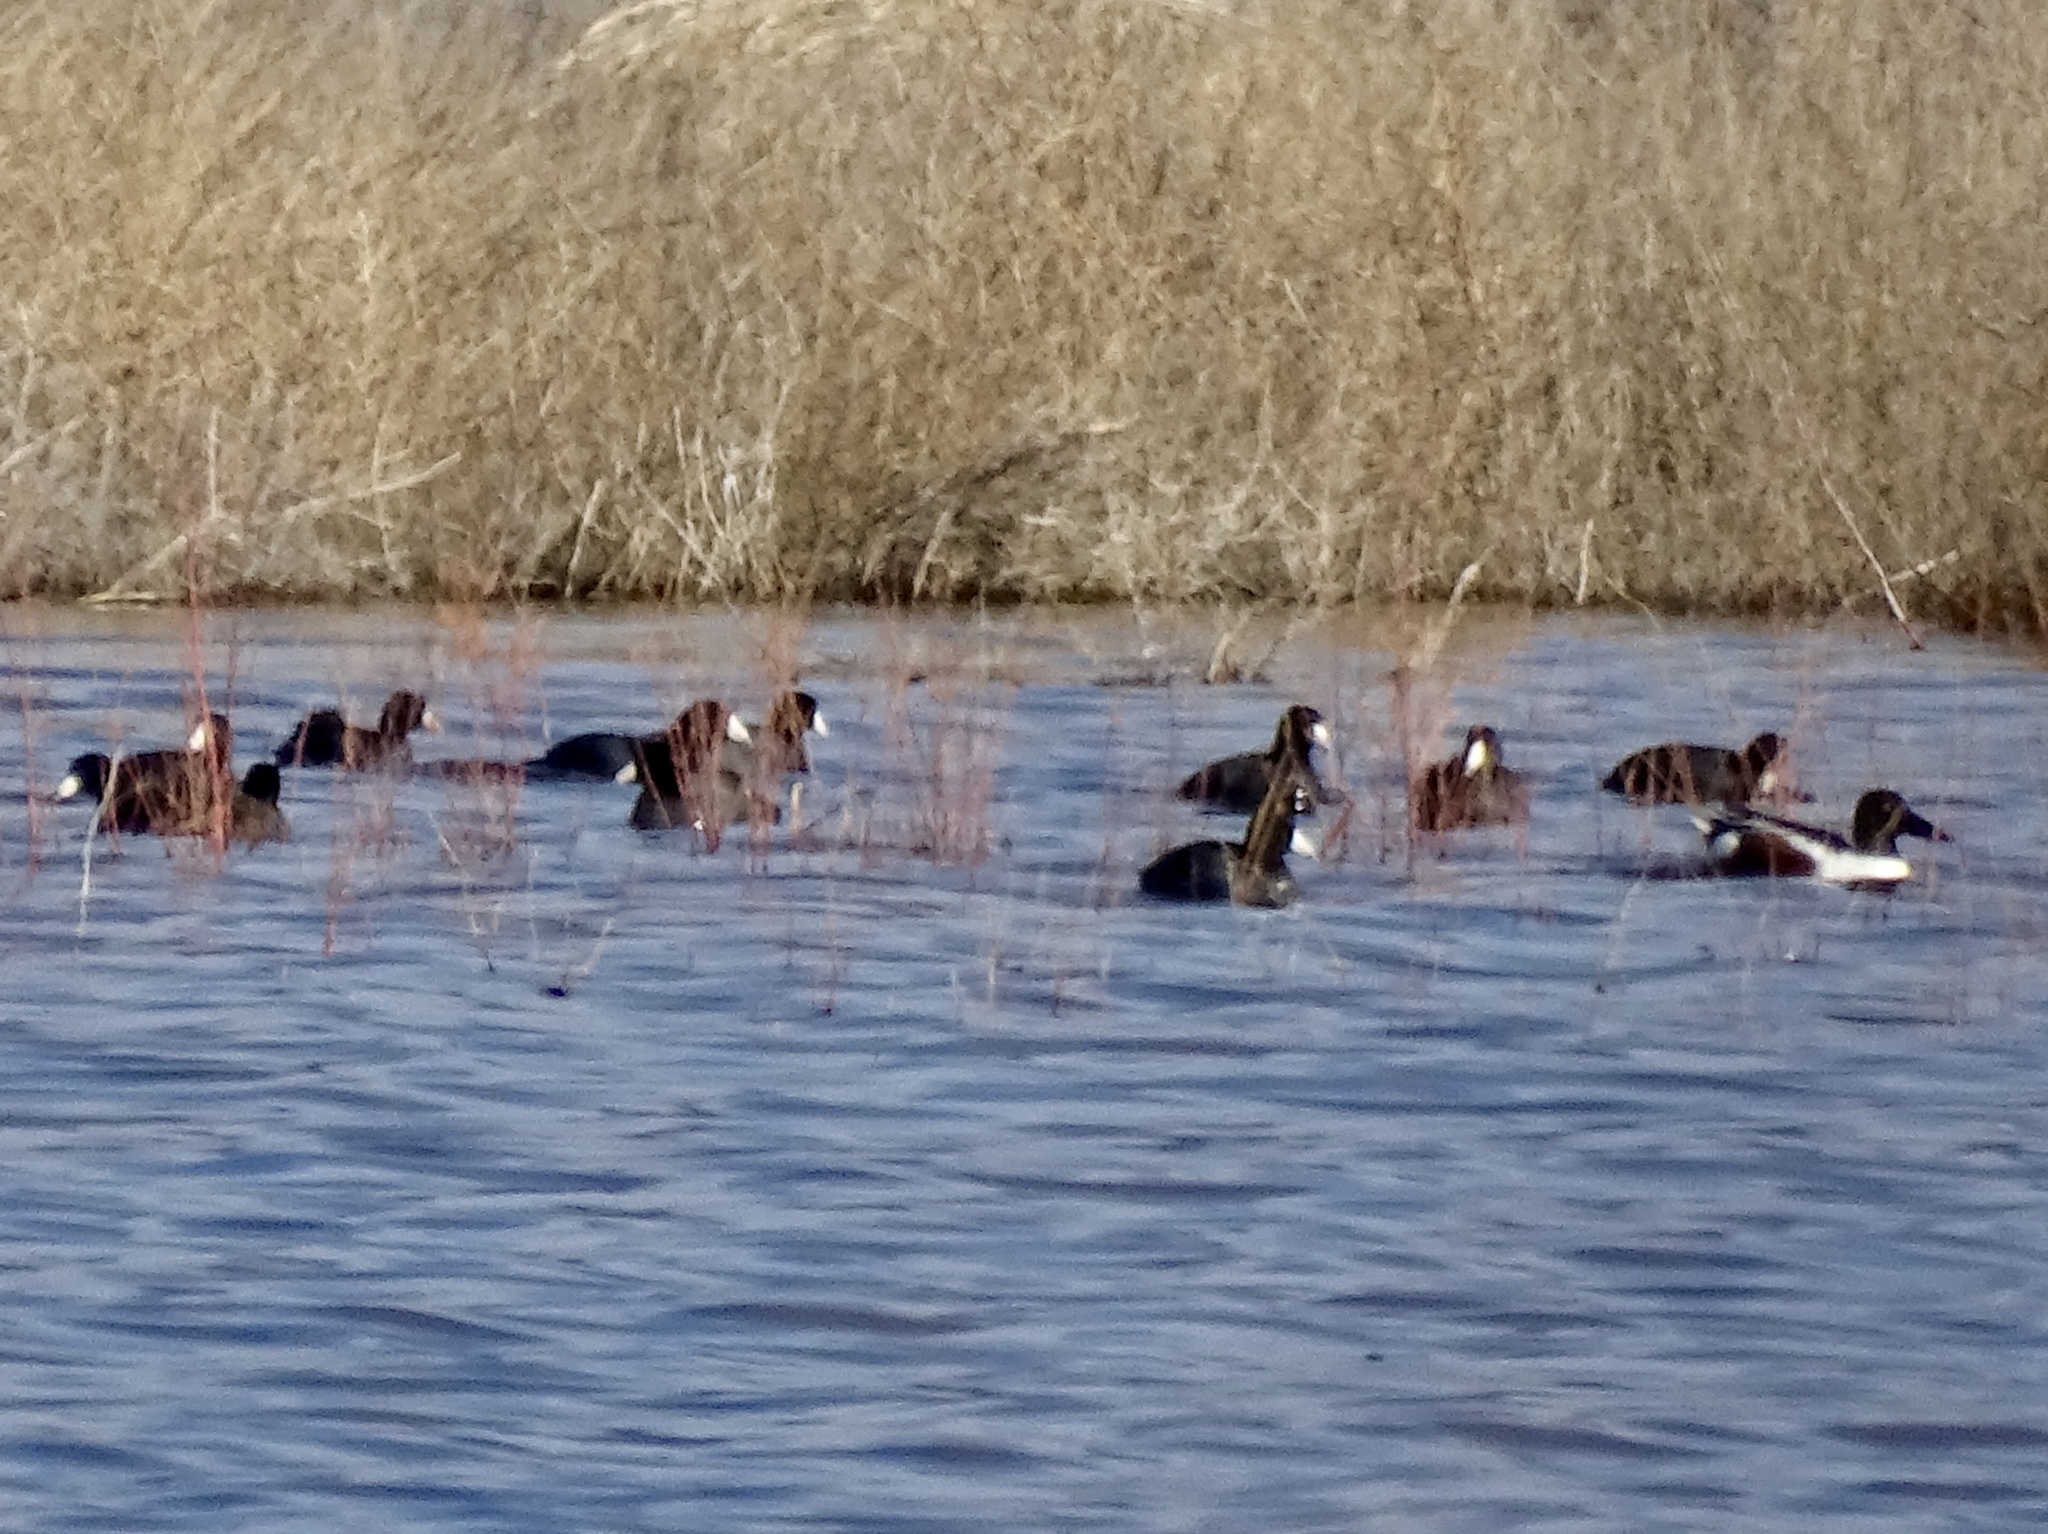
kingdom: Animalia
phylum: Chordata
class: Aves
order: Gruiformes
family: Rallidae
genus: Fulica
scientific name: Fulica americana
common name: American coot
